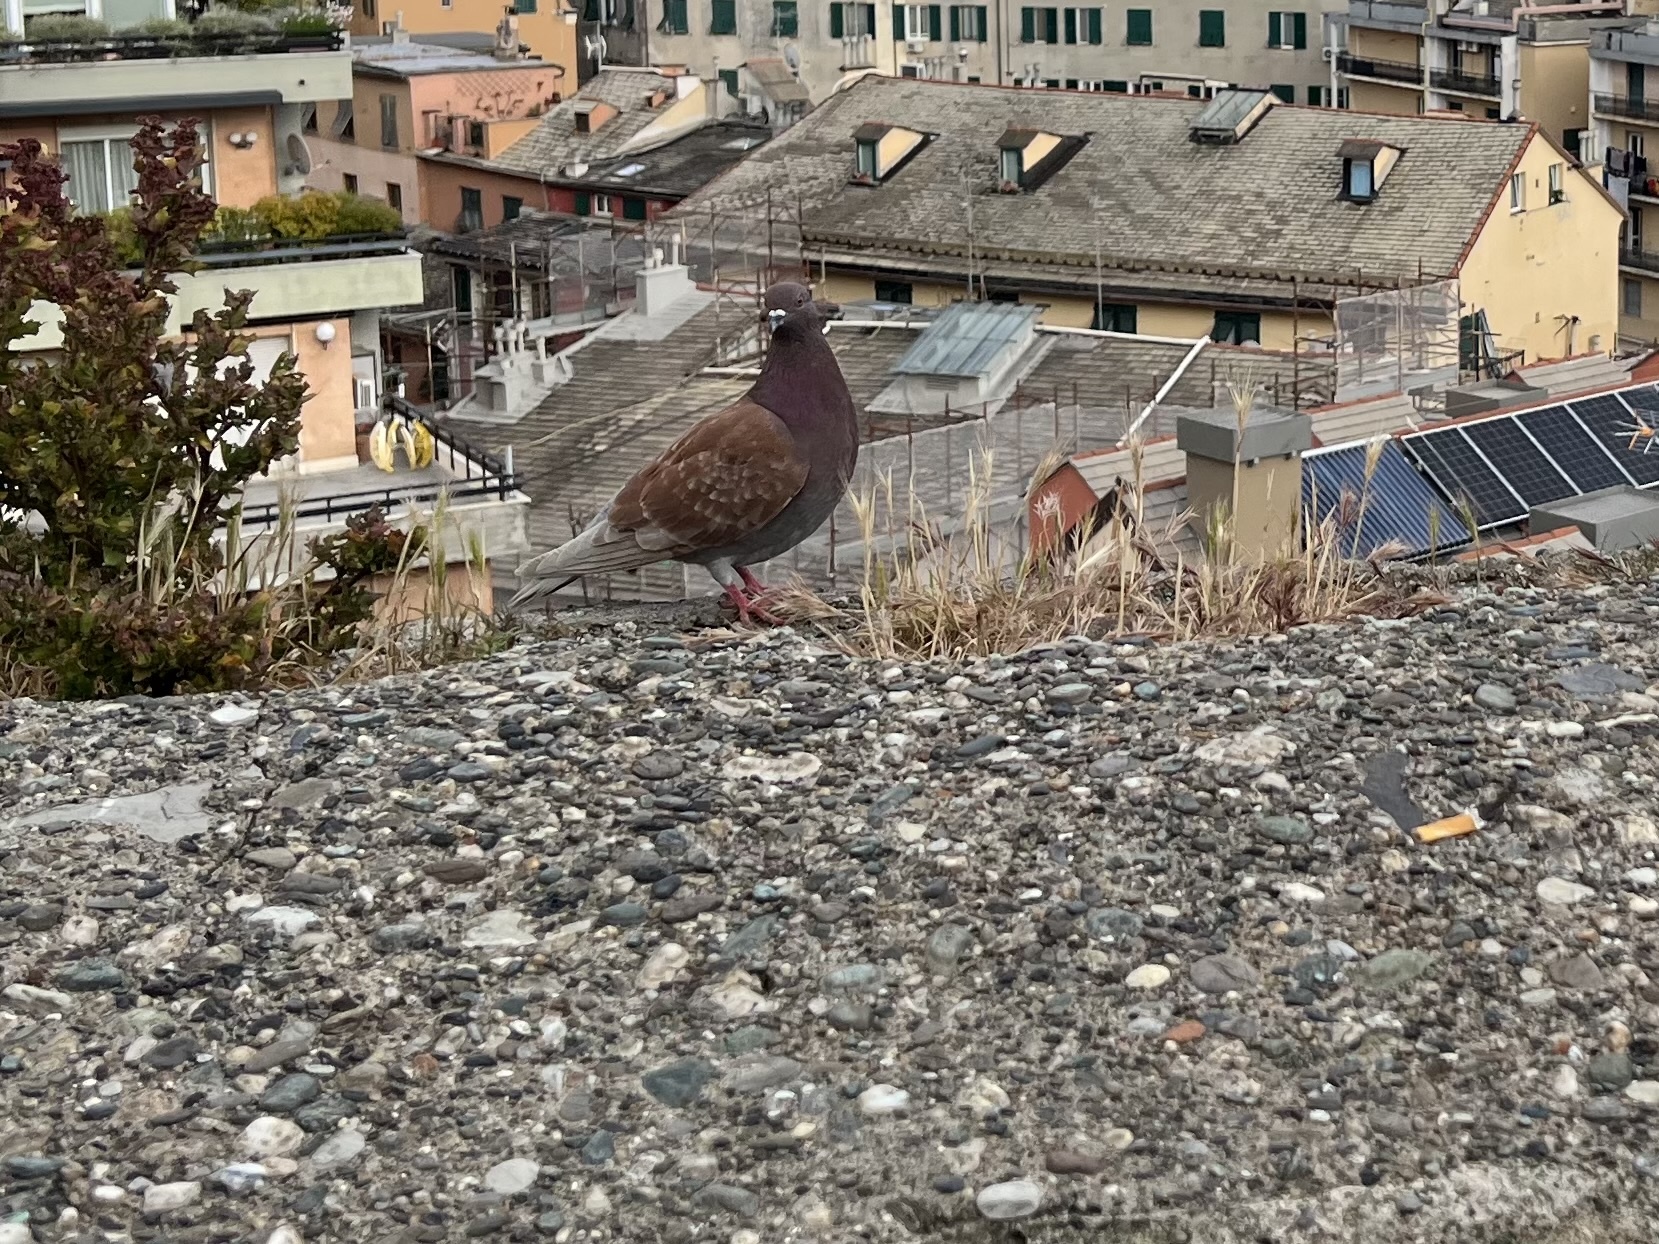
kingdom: Animalia
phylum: Chordata
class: Aves
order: Columbiformes
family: Columbidae
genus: Columba
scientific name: Columba livia
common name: Rock pigeon
